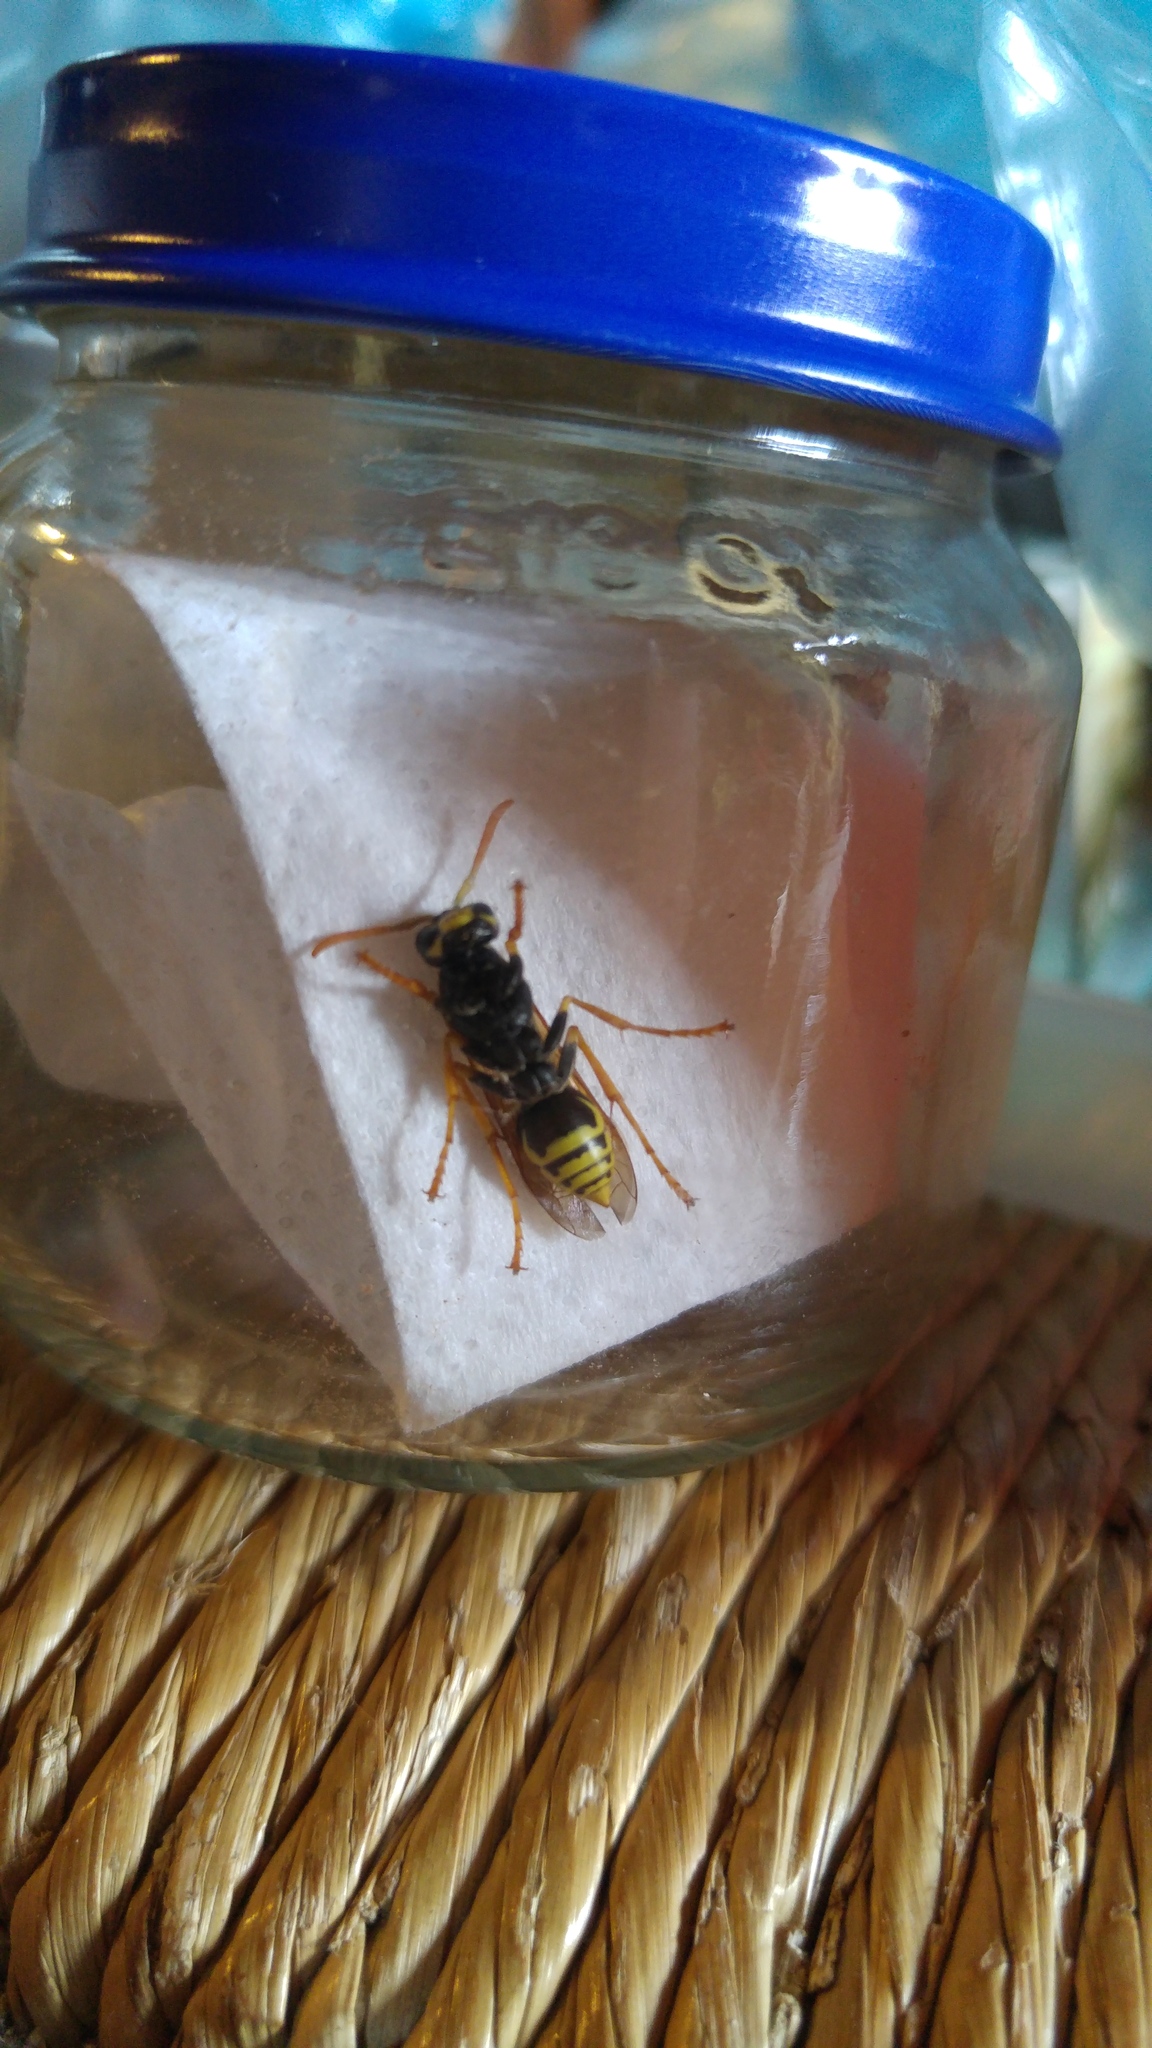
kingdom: Animalia
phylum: Arthropoda
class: Insecta
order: Hymenoptera
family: Eumenidae
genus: Polistes
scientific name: Polistes dominula
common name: Paper wasp
